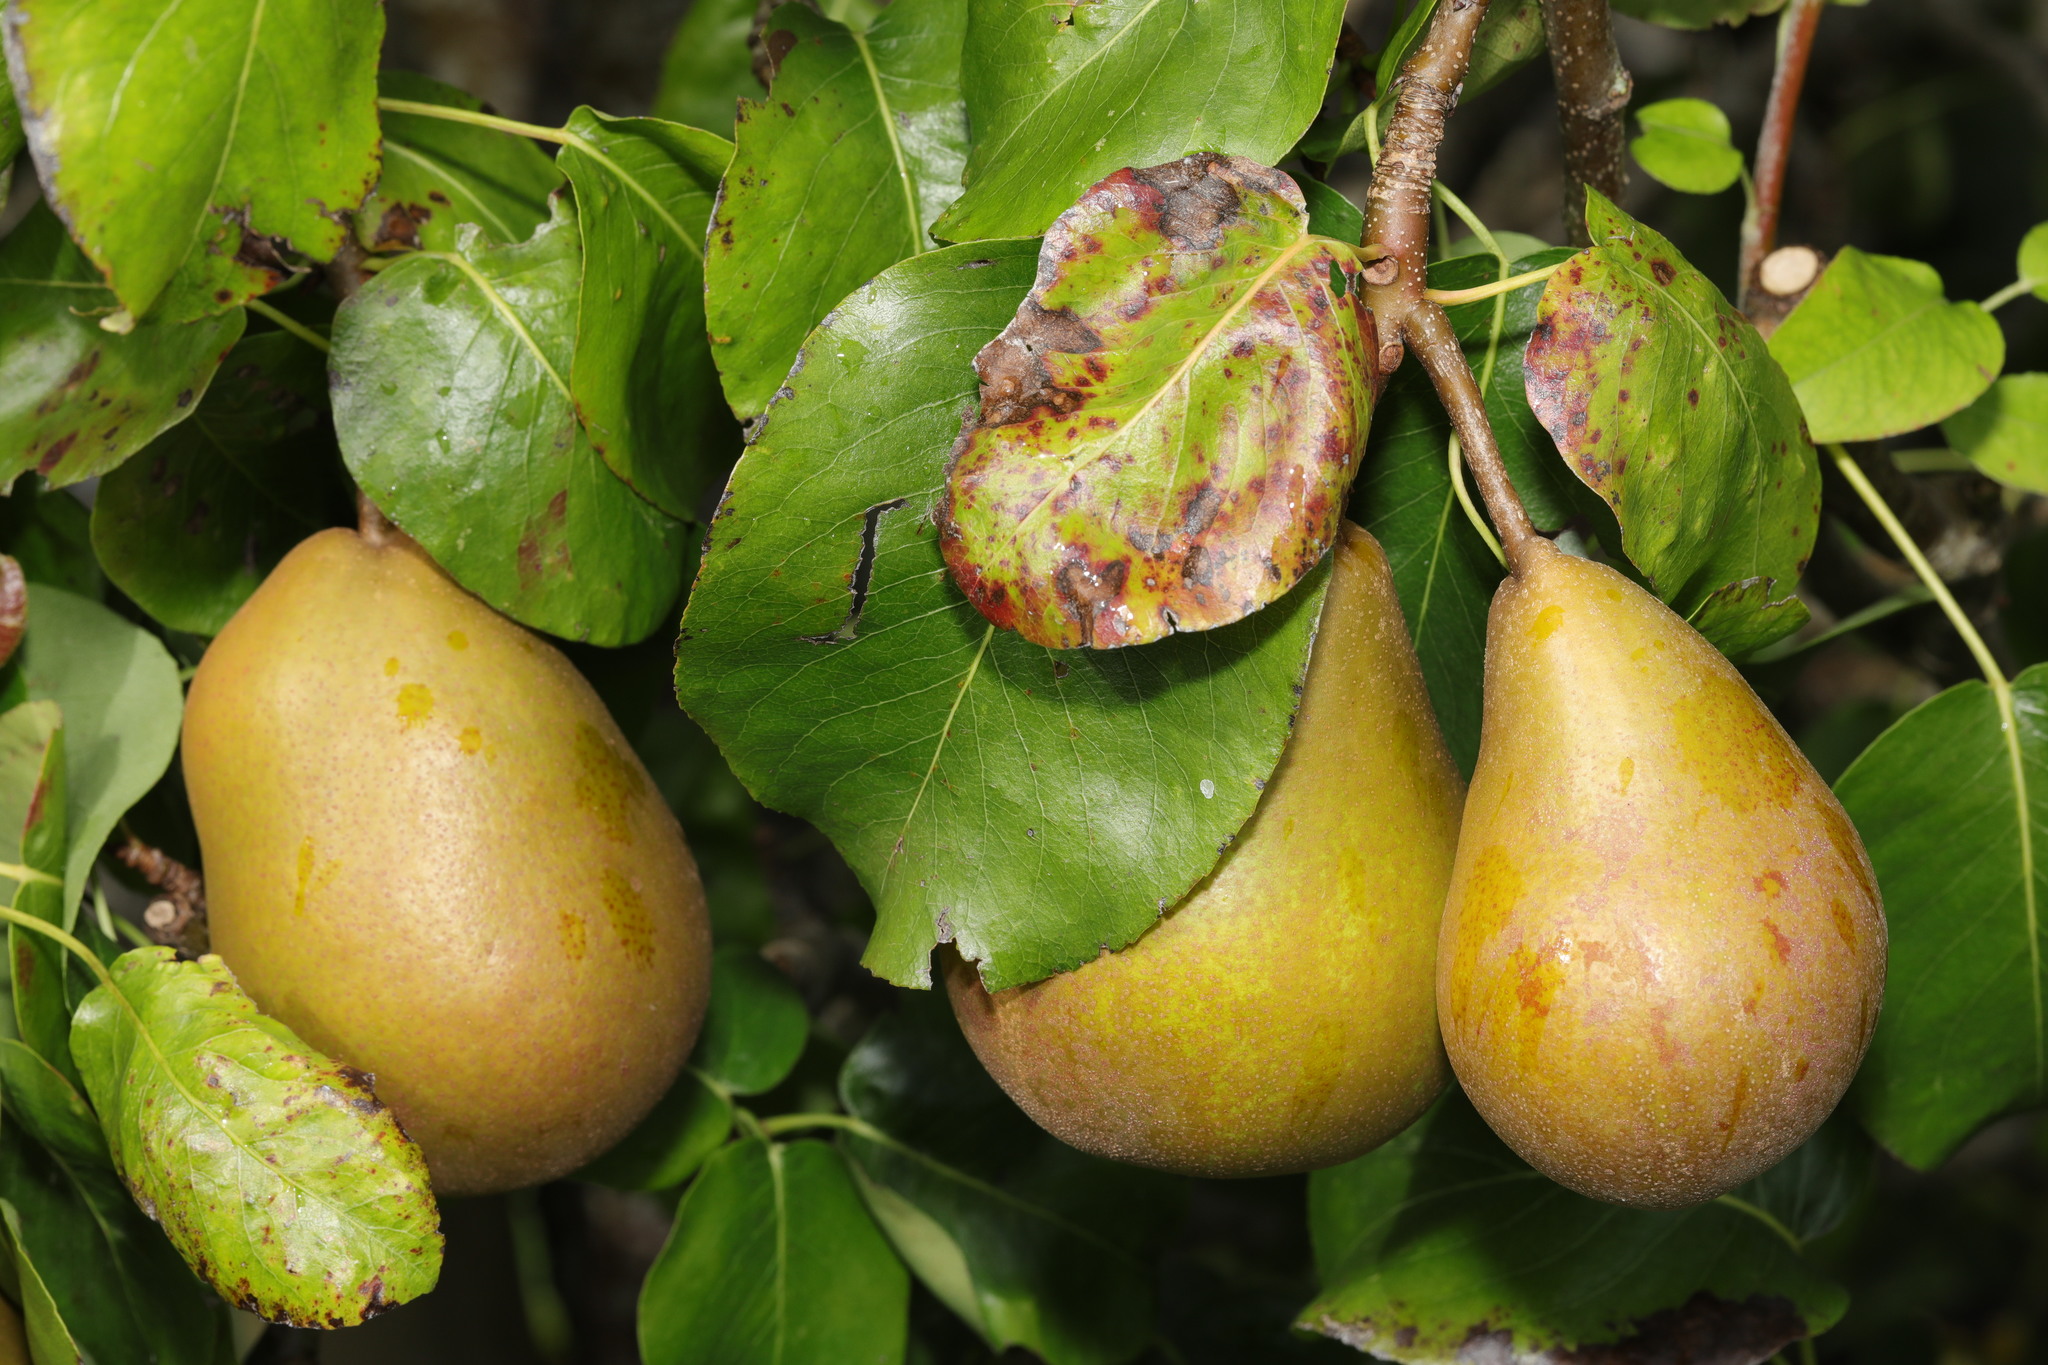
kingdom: Plantae
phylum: Tracheophyta
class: Magnoliopsida
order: Rosales
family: Rosaceae
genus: Pyrus
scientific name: Pyrus communis
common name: Pear
